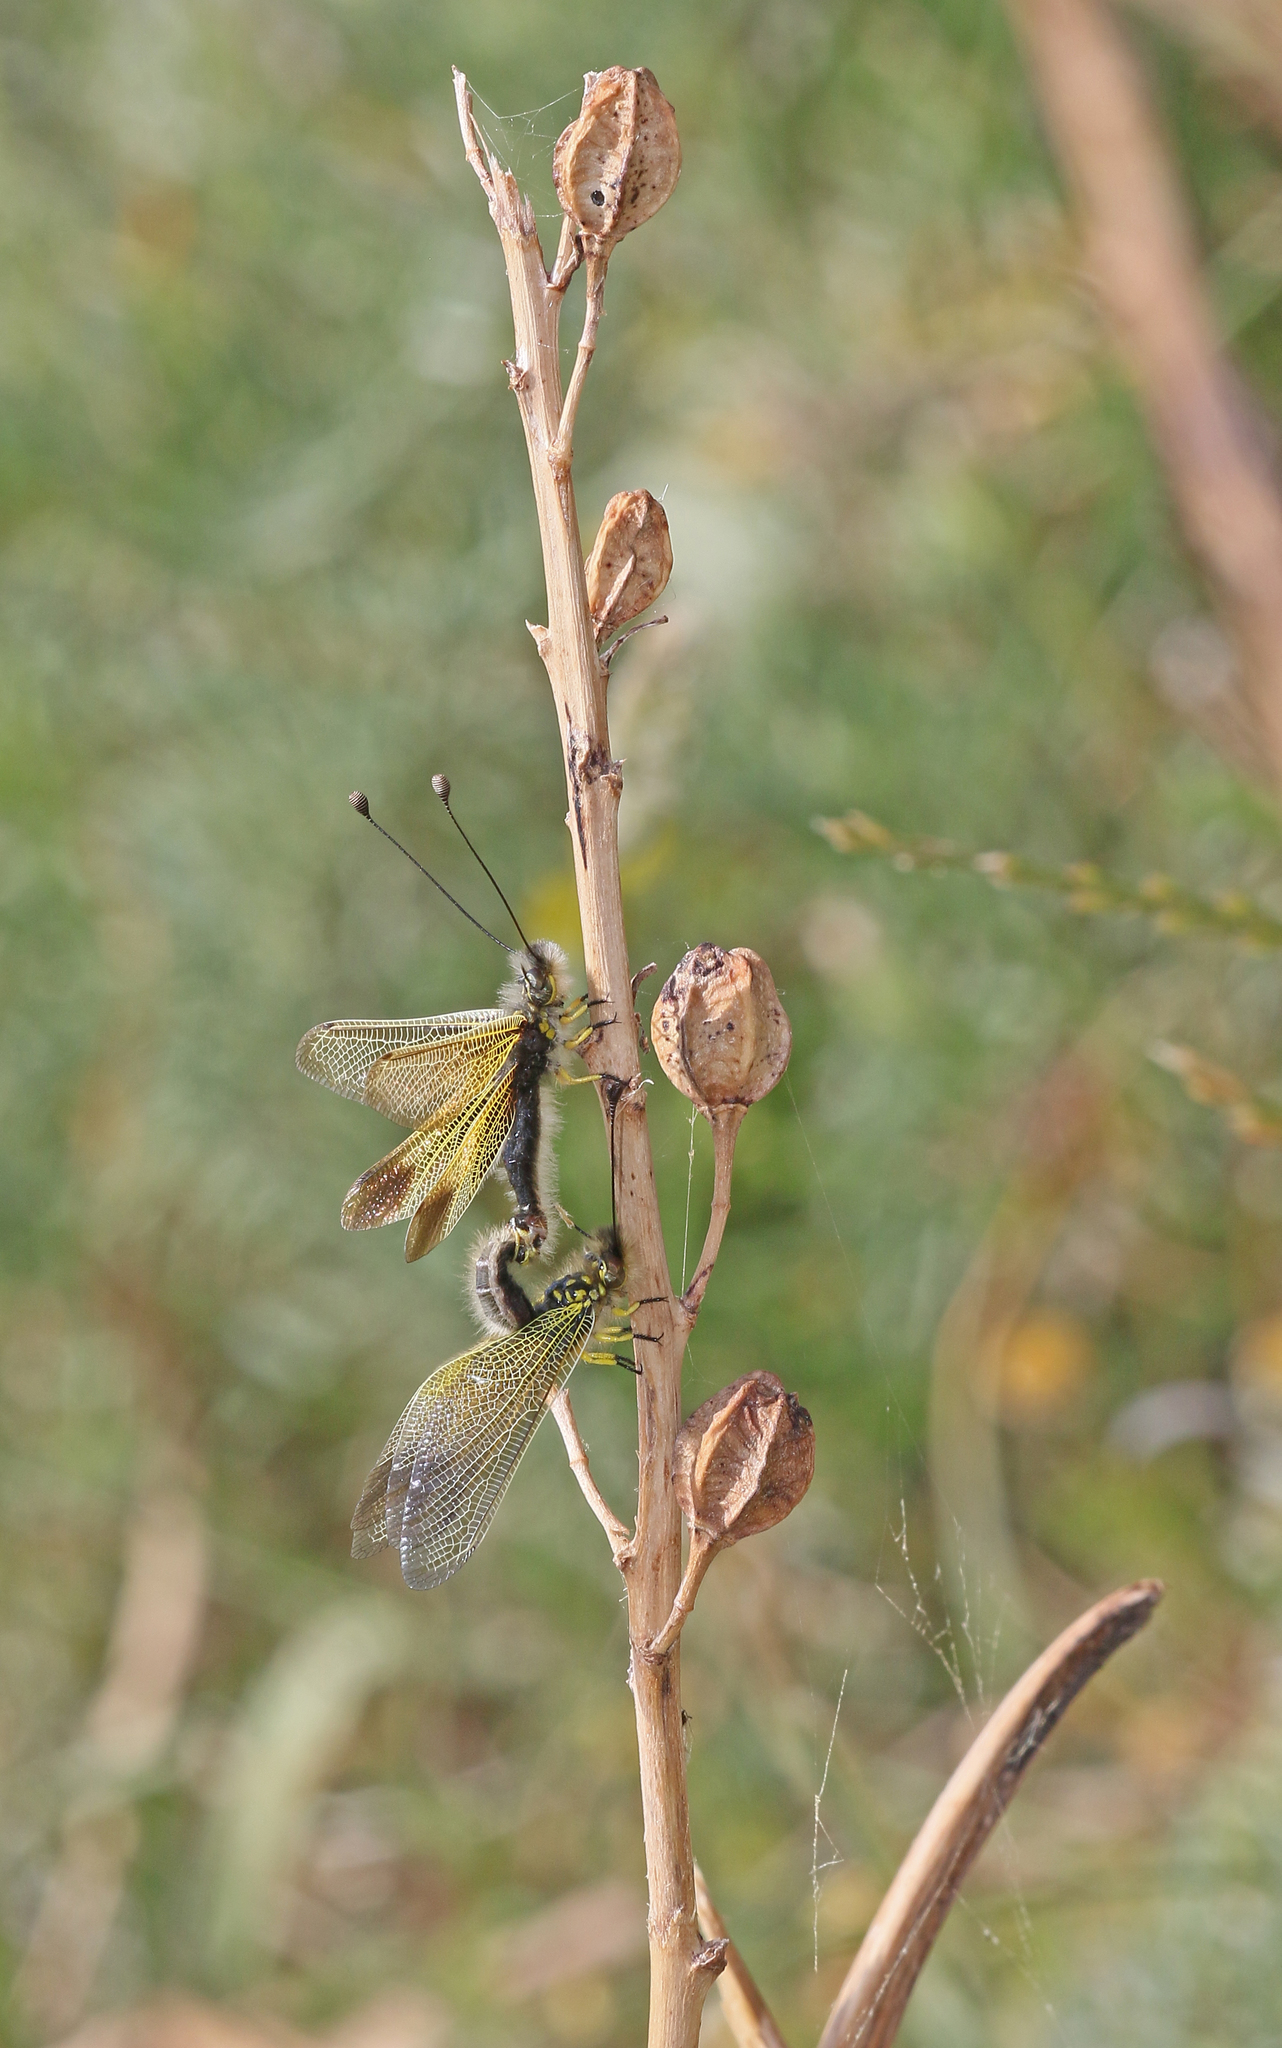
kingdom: Animalia
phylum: Arthropoda
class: Insecta
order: Neuroptera
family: Ascalaphidae
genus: Libelloides
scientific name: Libelloides ictericus
